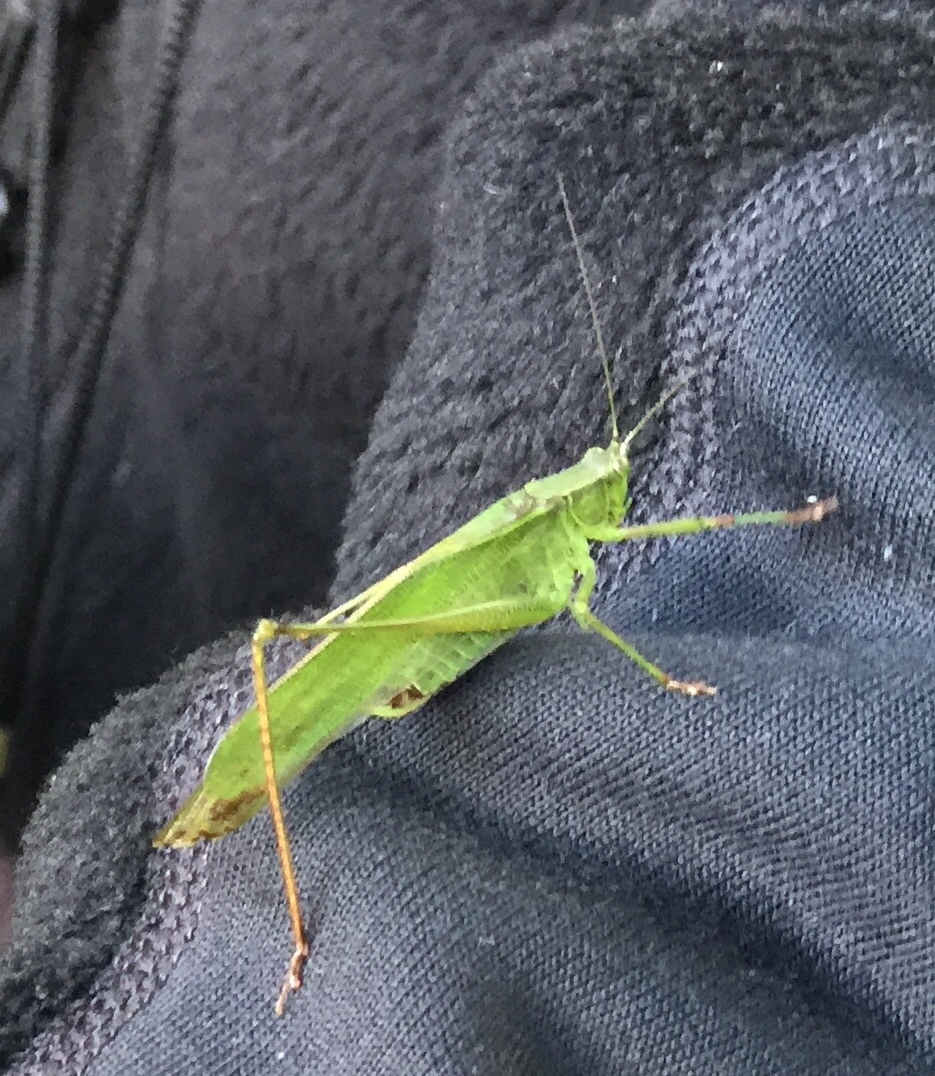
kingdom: Animalia
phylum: Arthropoda
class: Insecta
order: Orthoptera
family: Tettigoniidae
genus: Scudderia
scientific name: Scudderia furcata
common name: Fork-tailed bush katydid
